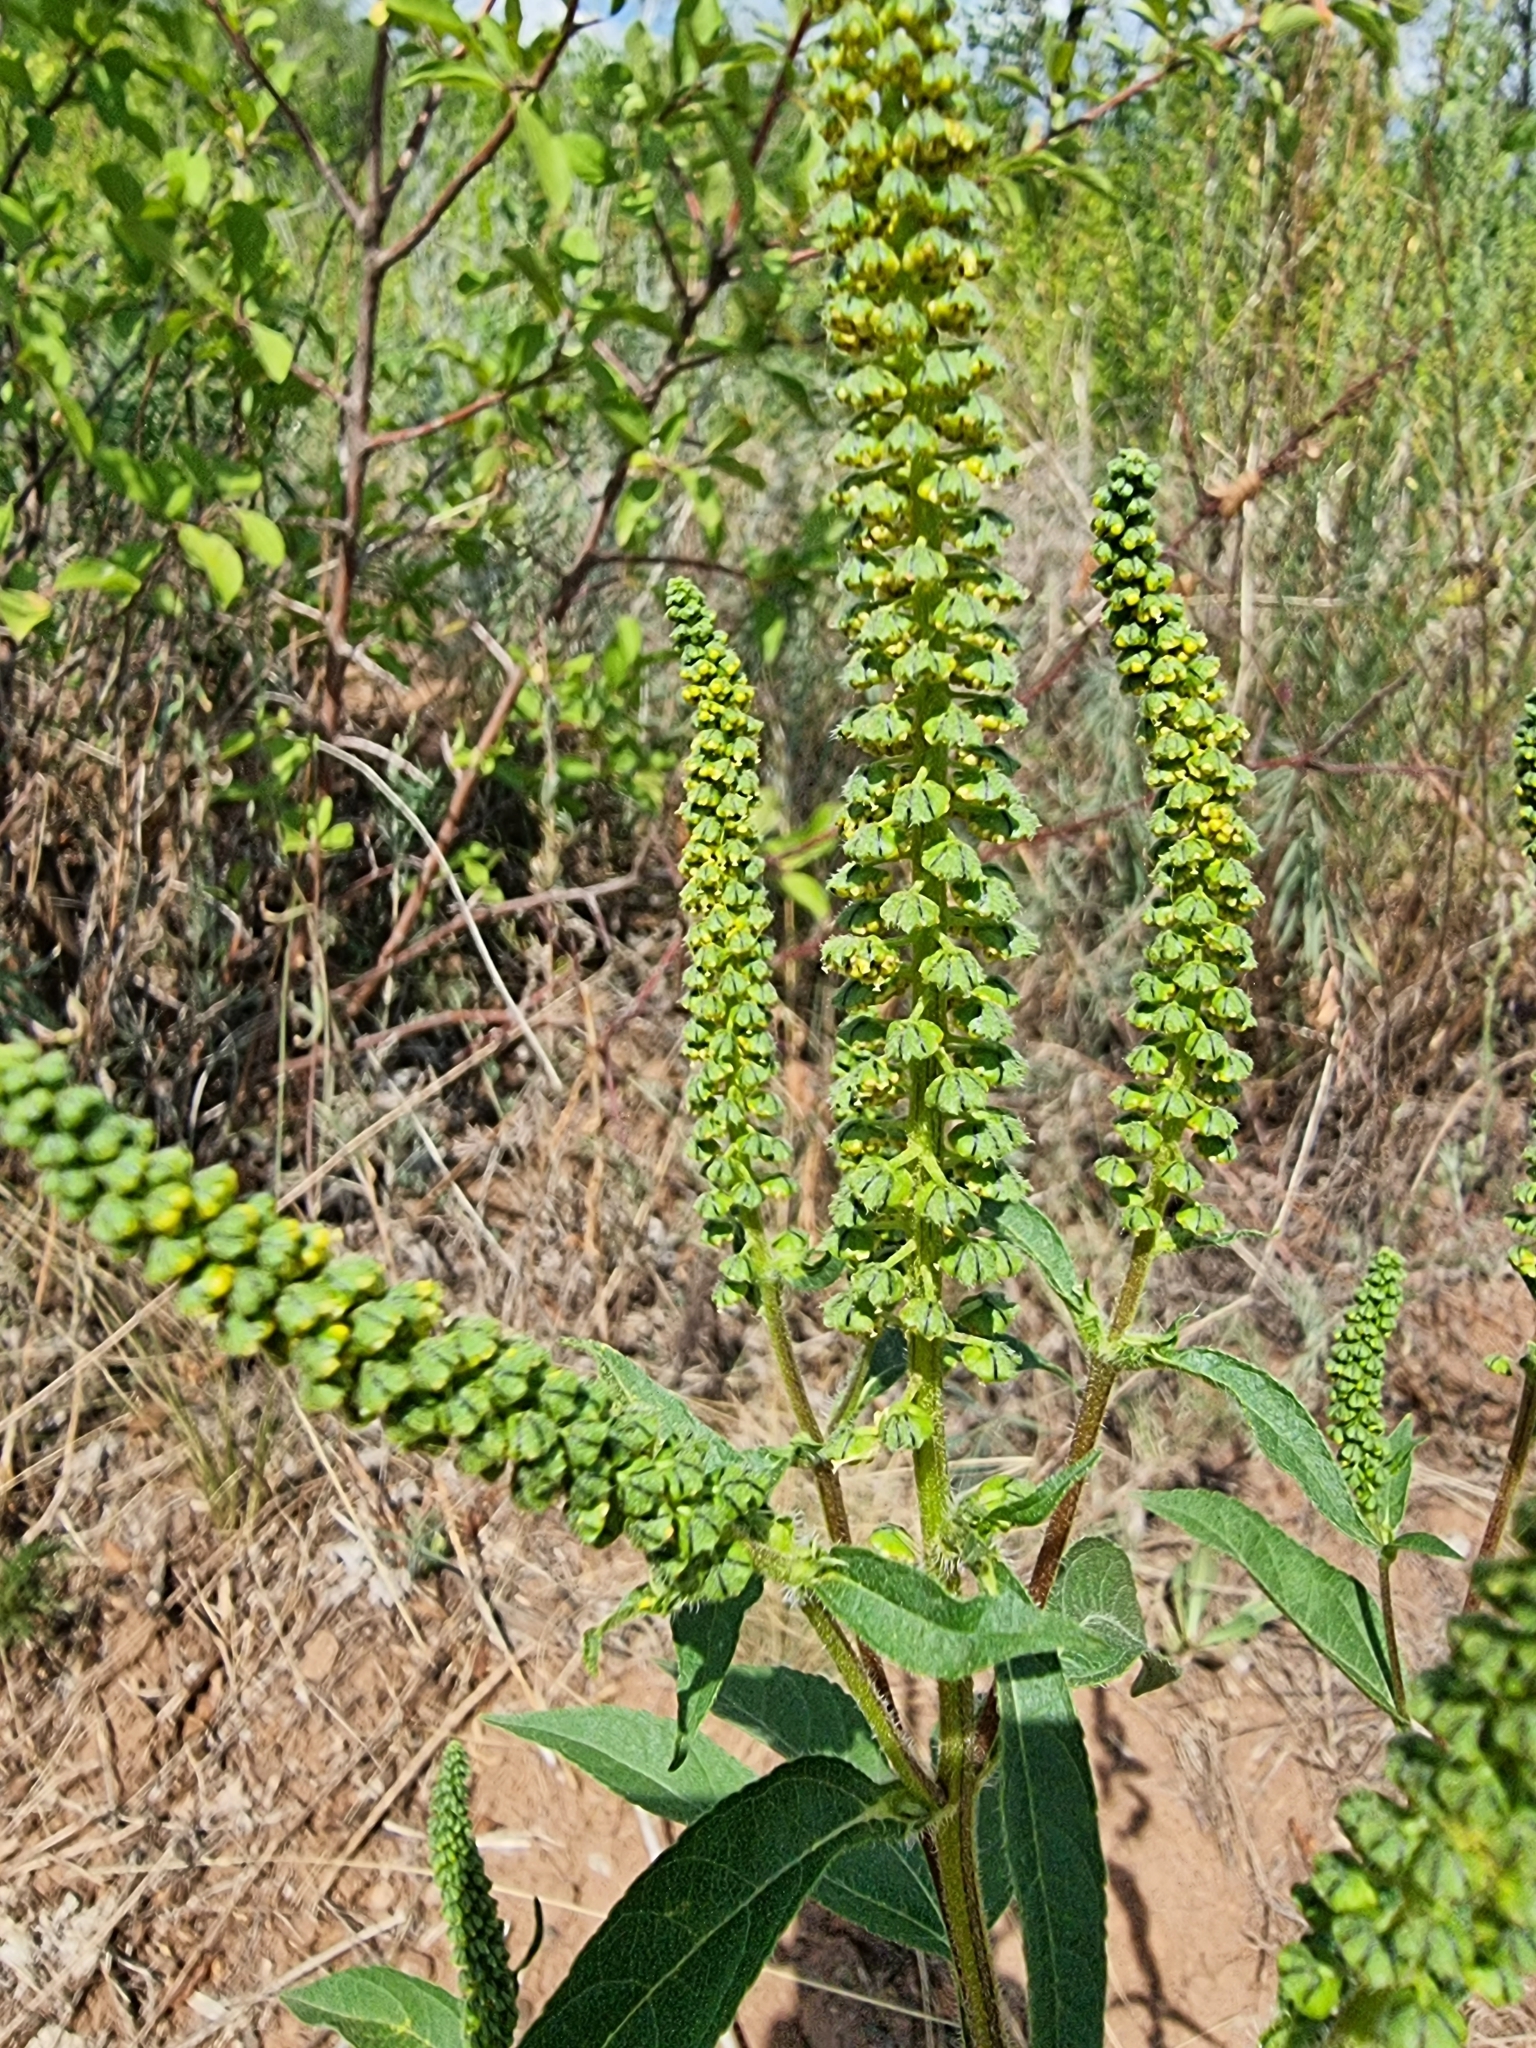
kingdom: Plantae
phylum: Tracheophyta
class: Magnoliopsida
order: Asterales
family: Asteraceae
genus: Ambrosia
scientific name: Ambrosia trifida
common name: Giant ragweed
